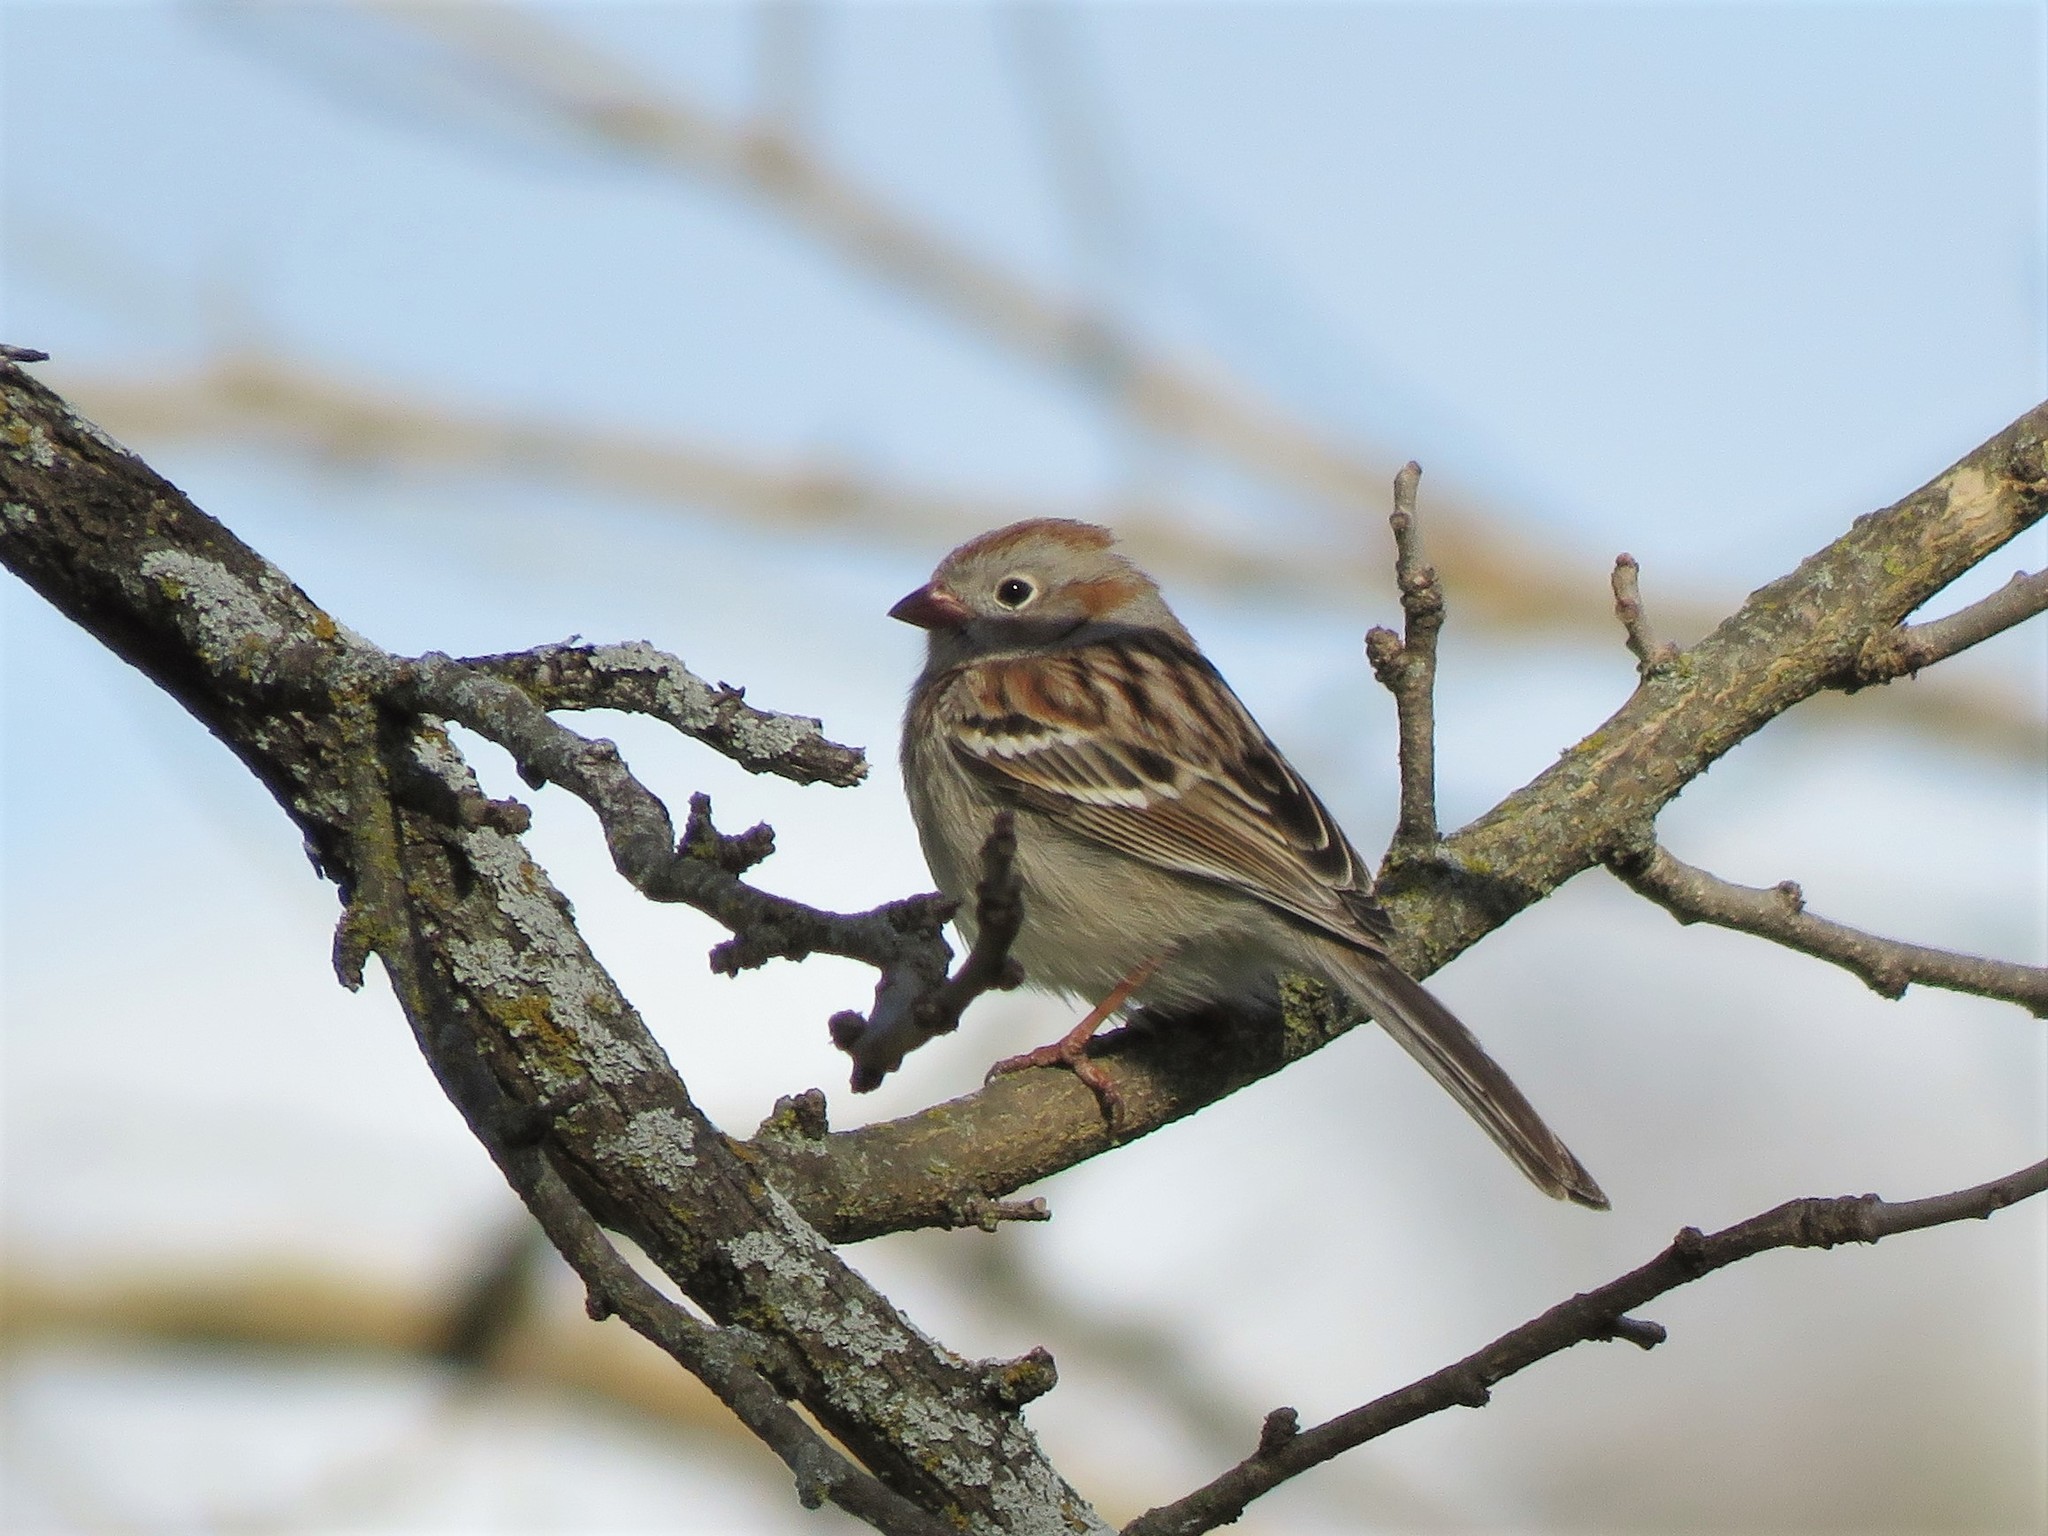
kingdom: Animalia
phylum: Chordata
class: Aves
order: Passeriformes
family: Passerellidae
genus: Spizella
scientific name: Spizella pusilla
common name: Field sparrow
